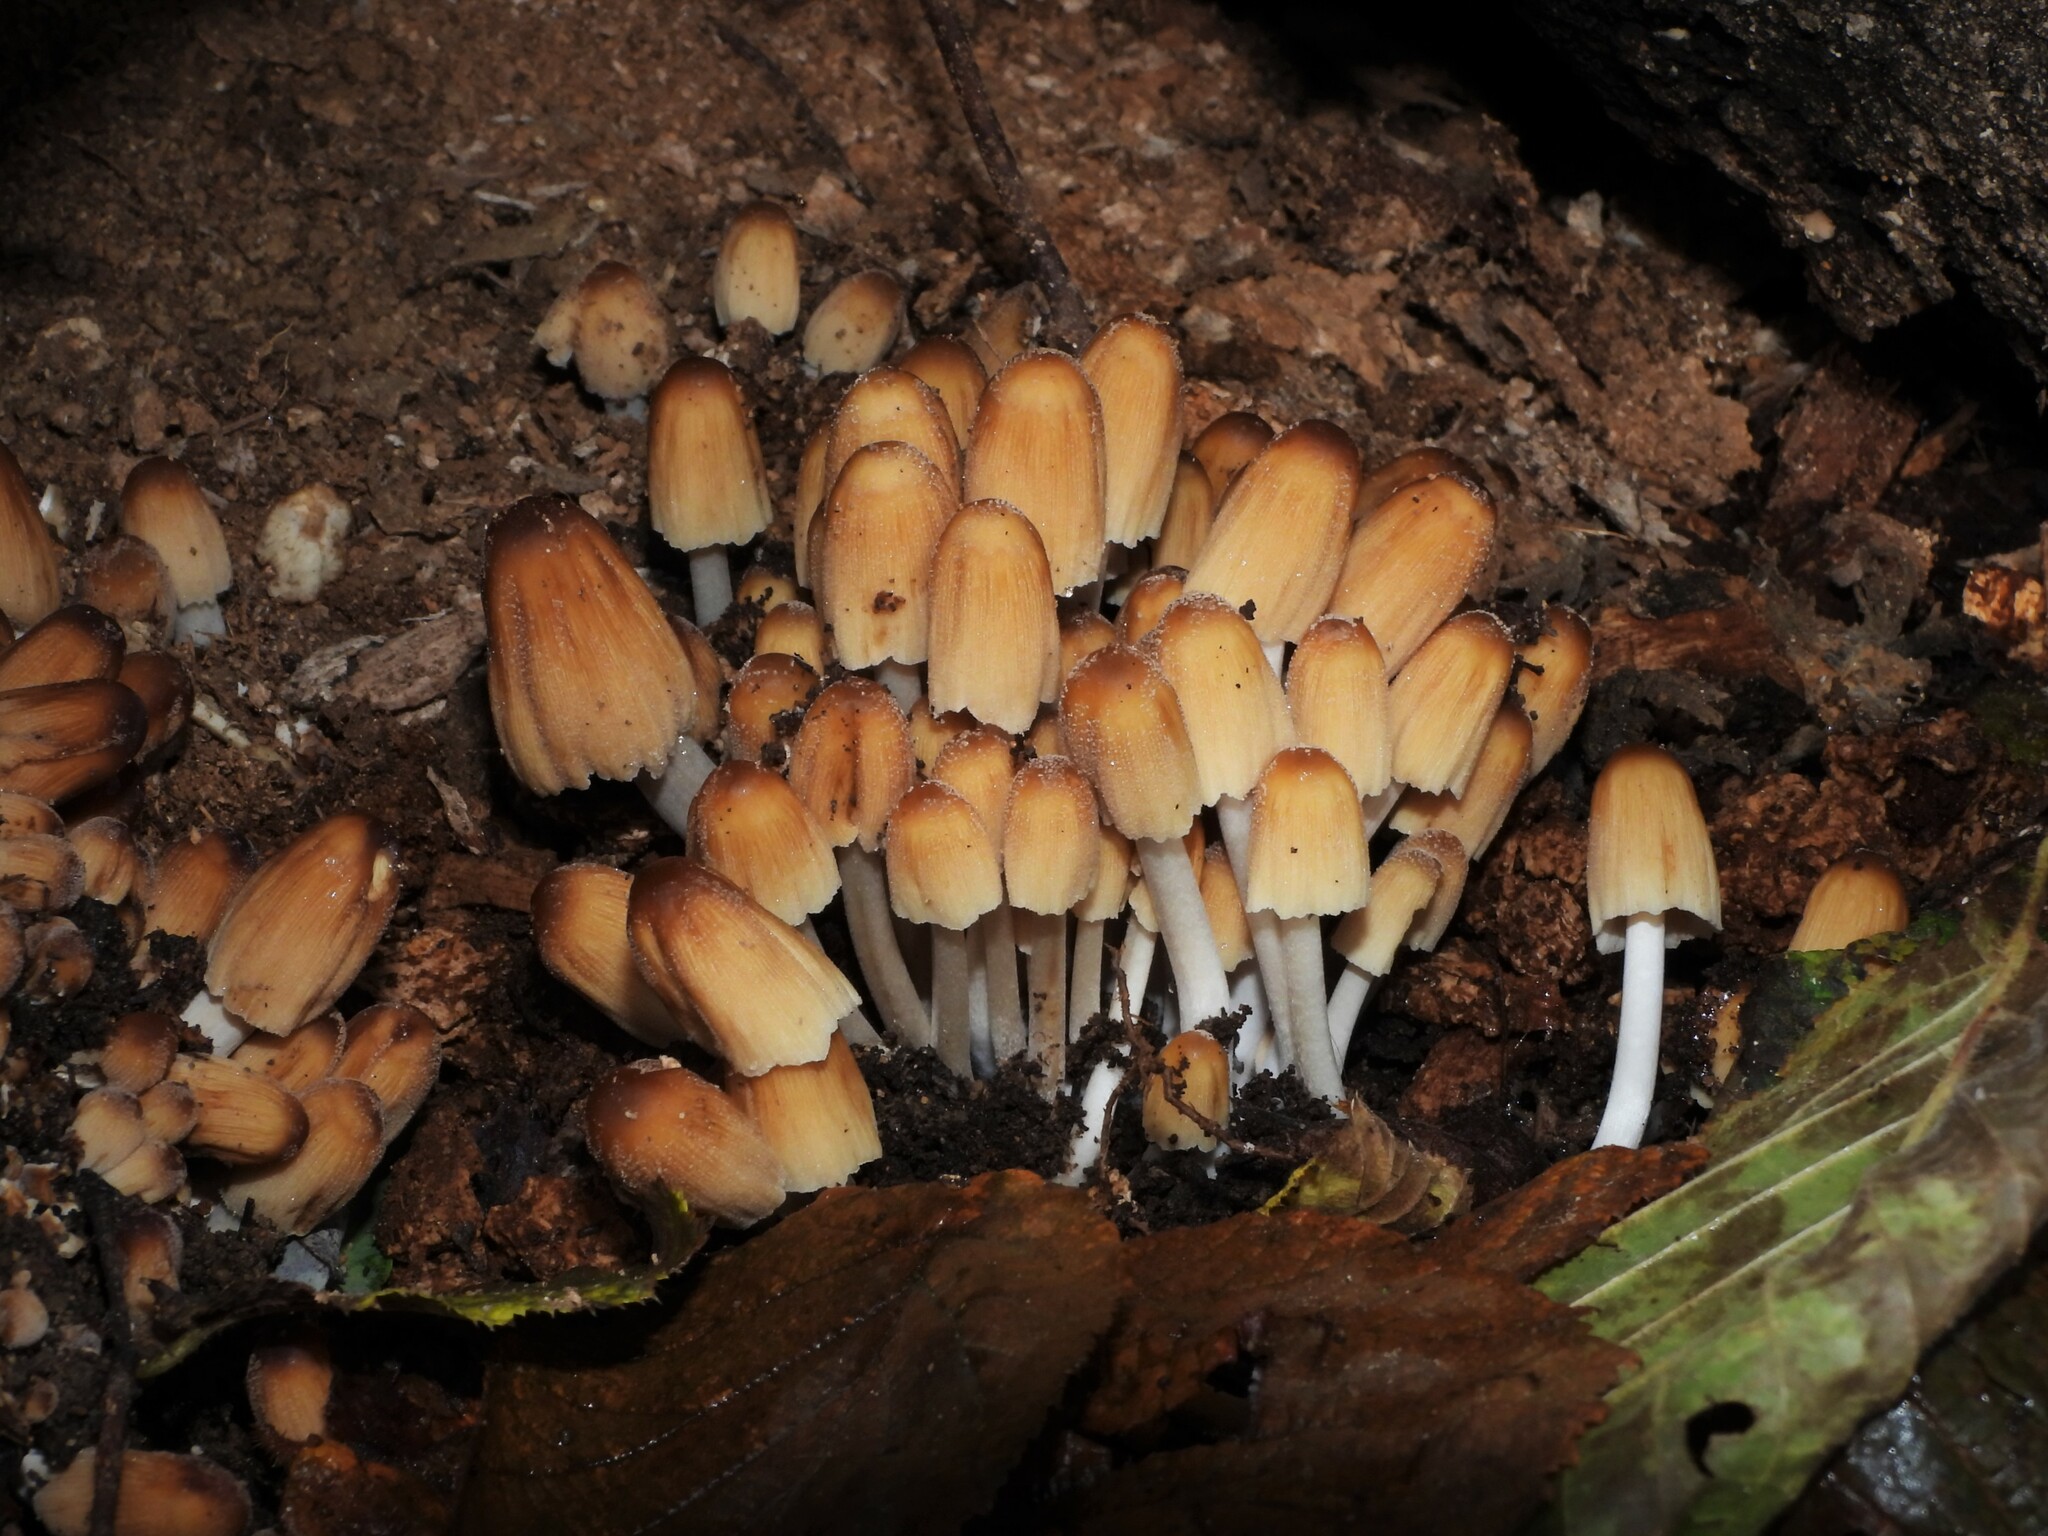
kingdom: Fungi
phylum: Basidiomycota
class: Agaricomycetes
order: Agaricales
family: Psathyrellaceae
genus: Coprinellus
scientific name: Coprinellus micaceus
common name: Glistening ink-cap
